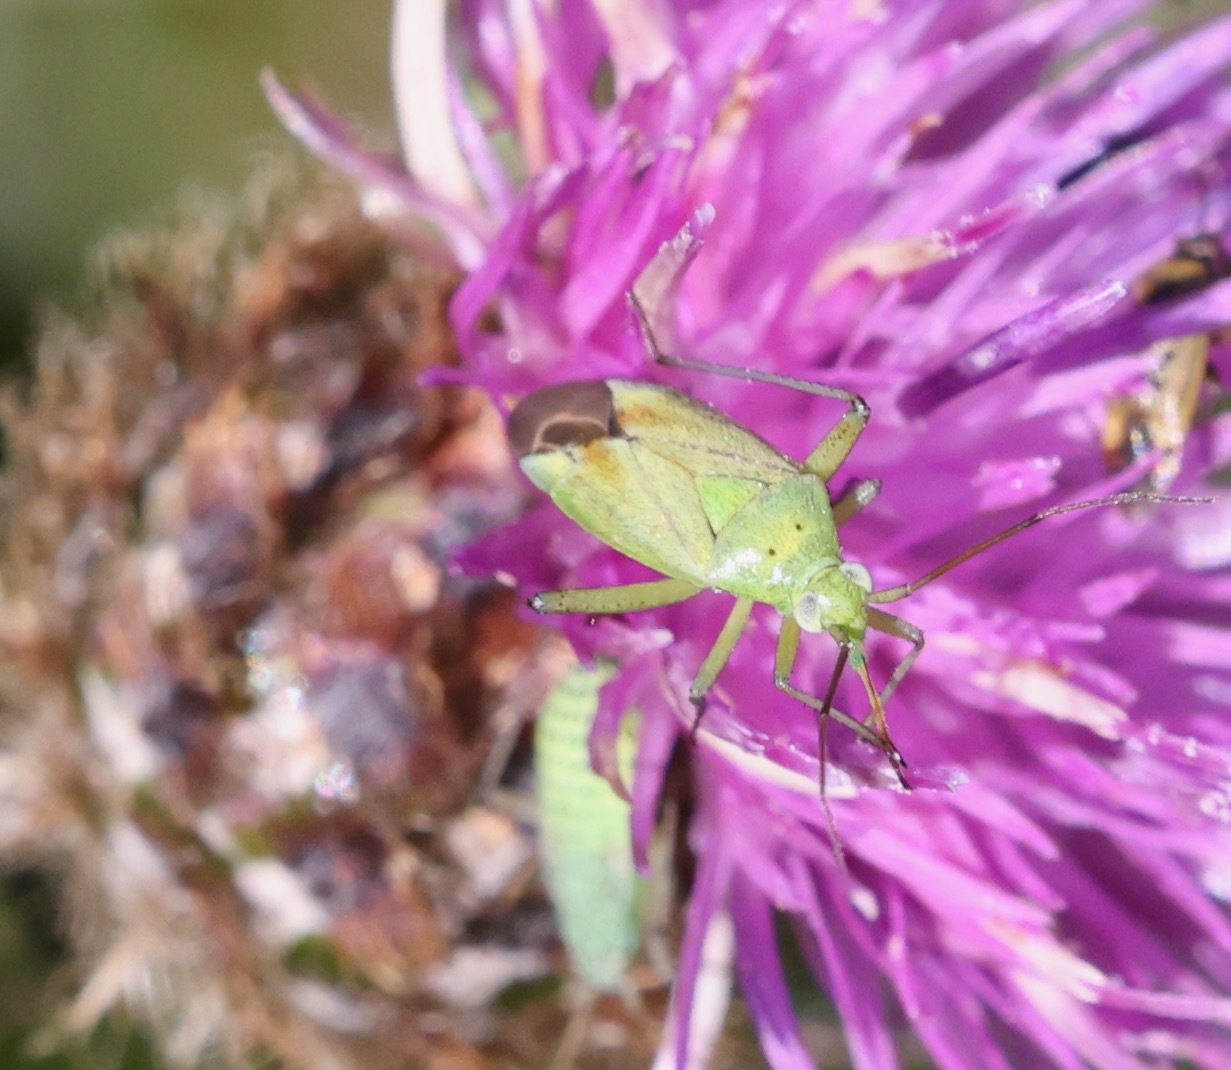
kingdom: Animalia
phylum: Arthropoda
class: Insecta
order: Hemiptera
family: Miridae
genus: Closterotomus
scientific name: Closterotomus norvegicus
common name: Plant bug
